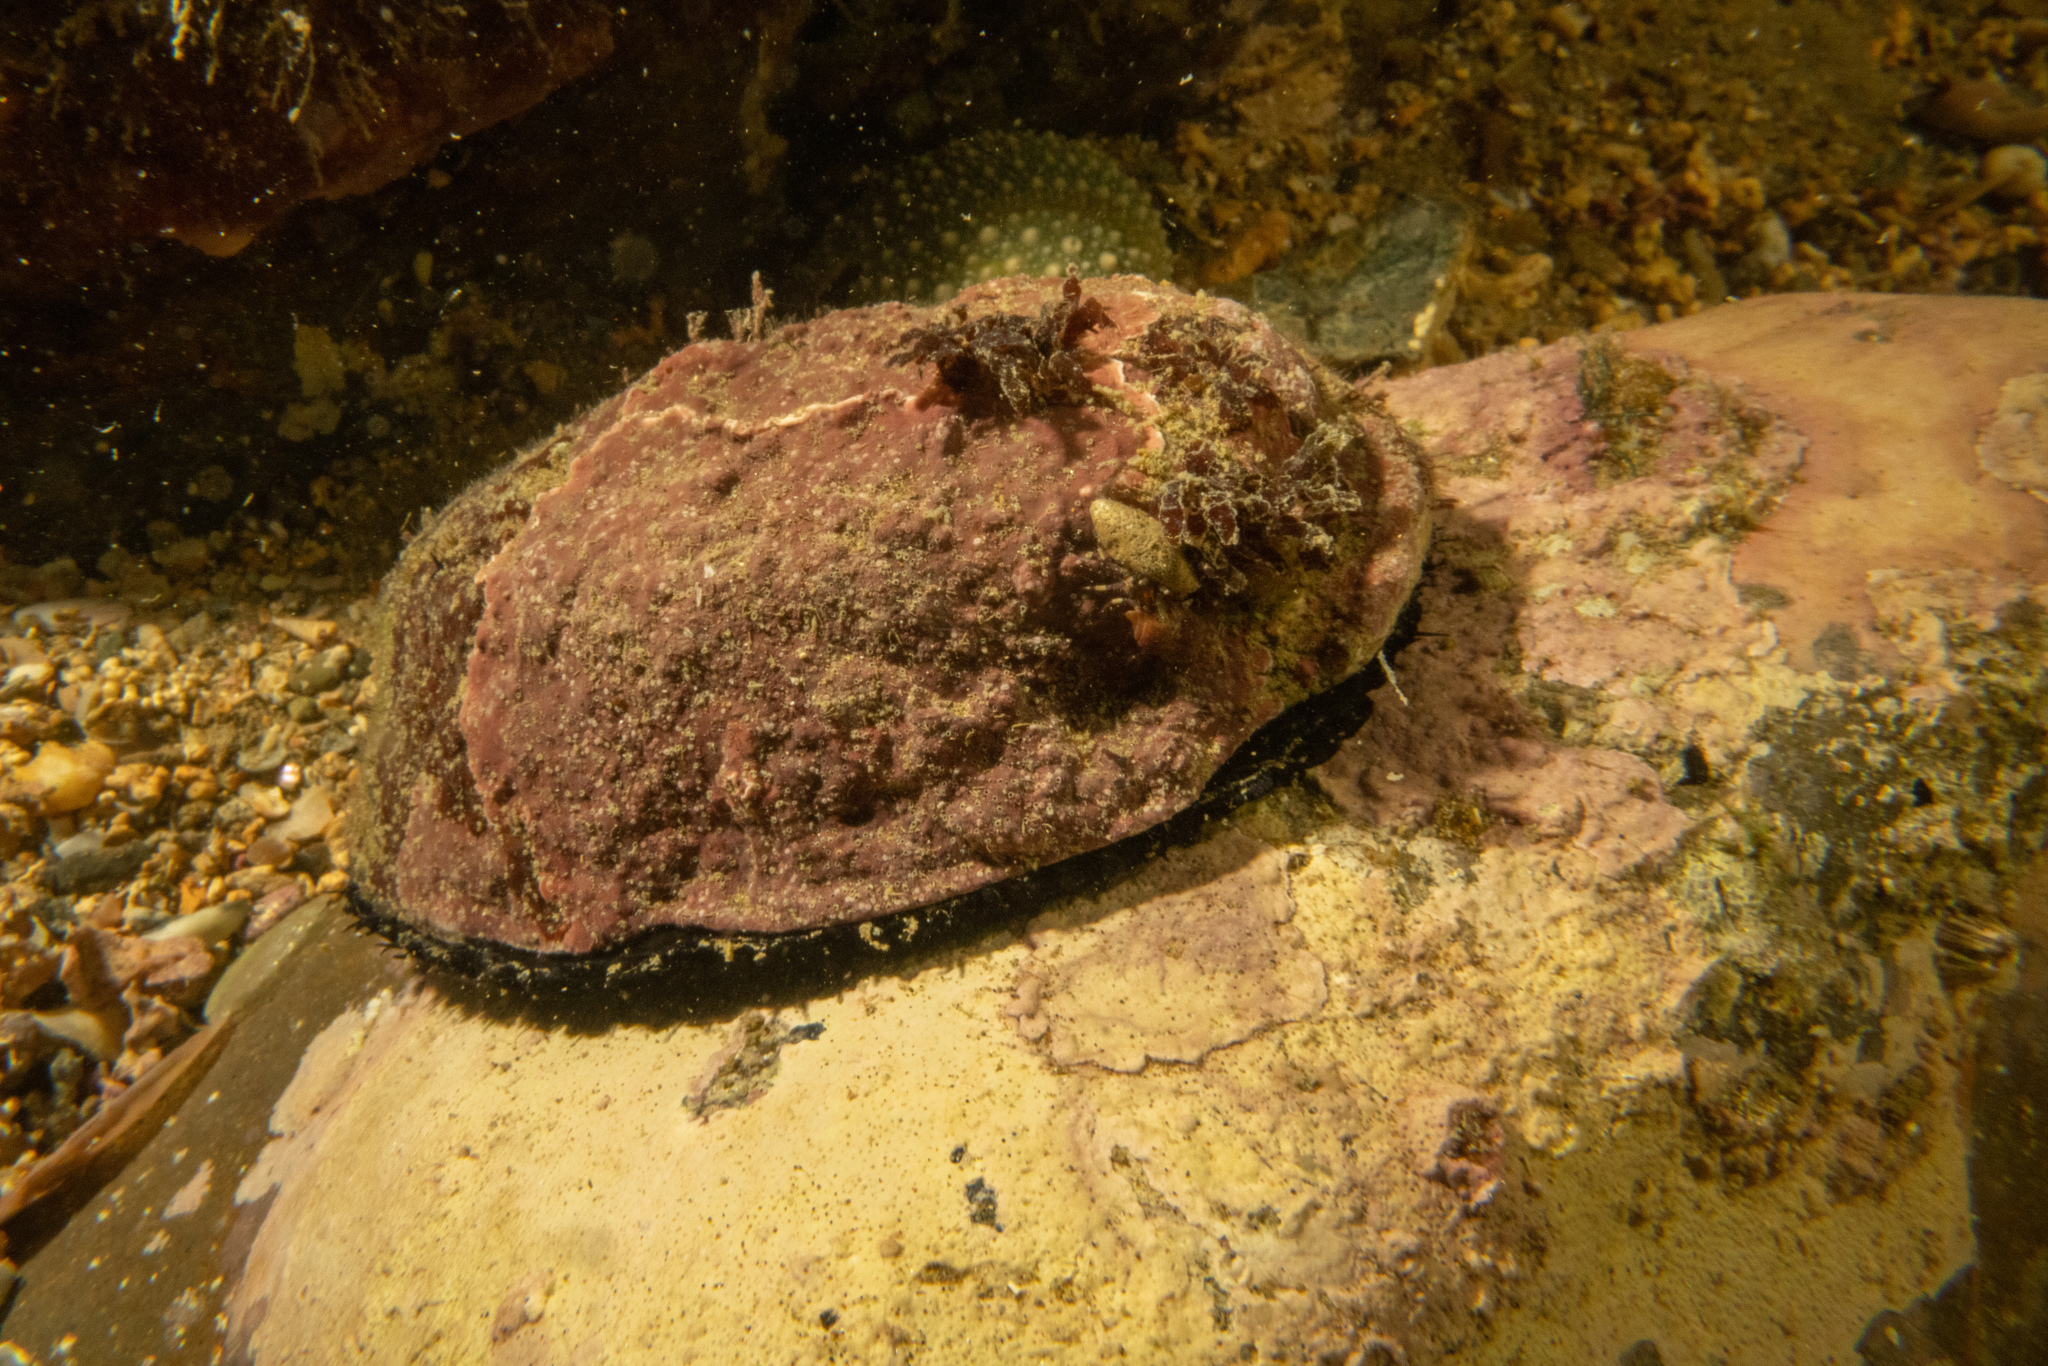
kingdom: Animalia
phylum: Mollusca
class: Gastropoda
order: Lepetellida
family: Haliotidae
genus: Haliotis
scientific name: Haliotis iris
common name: Abalone
